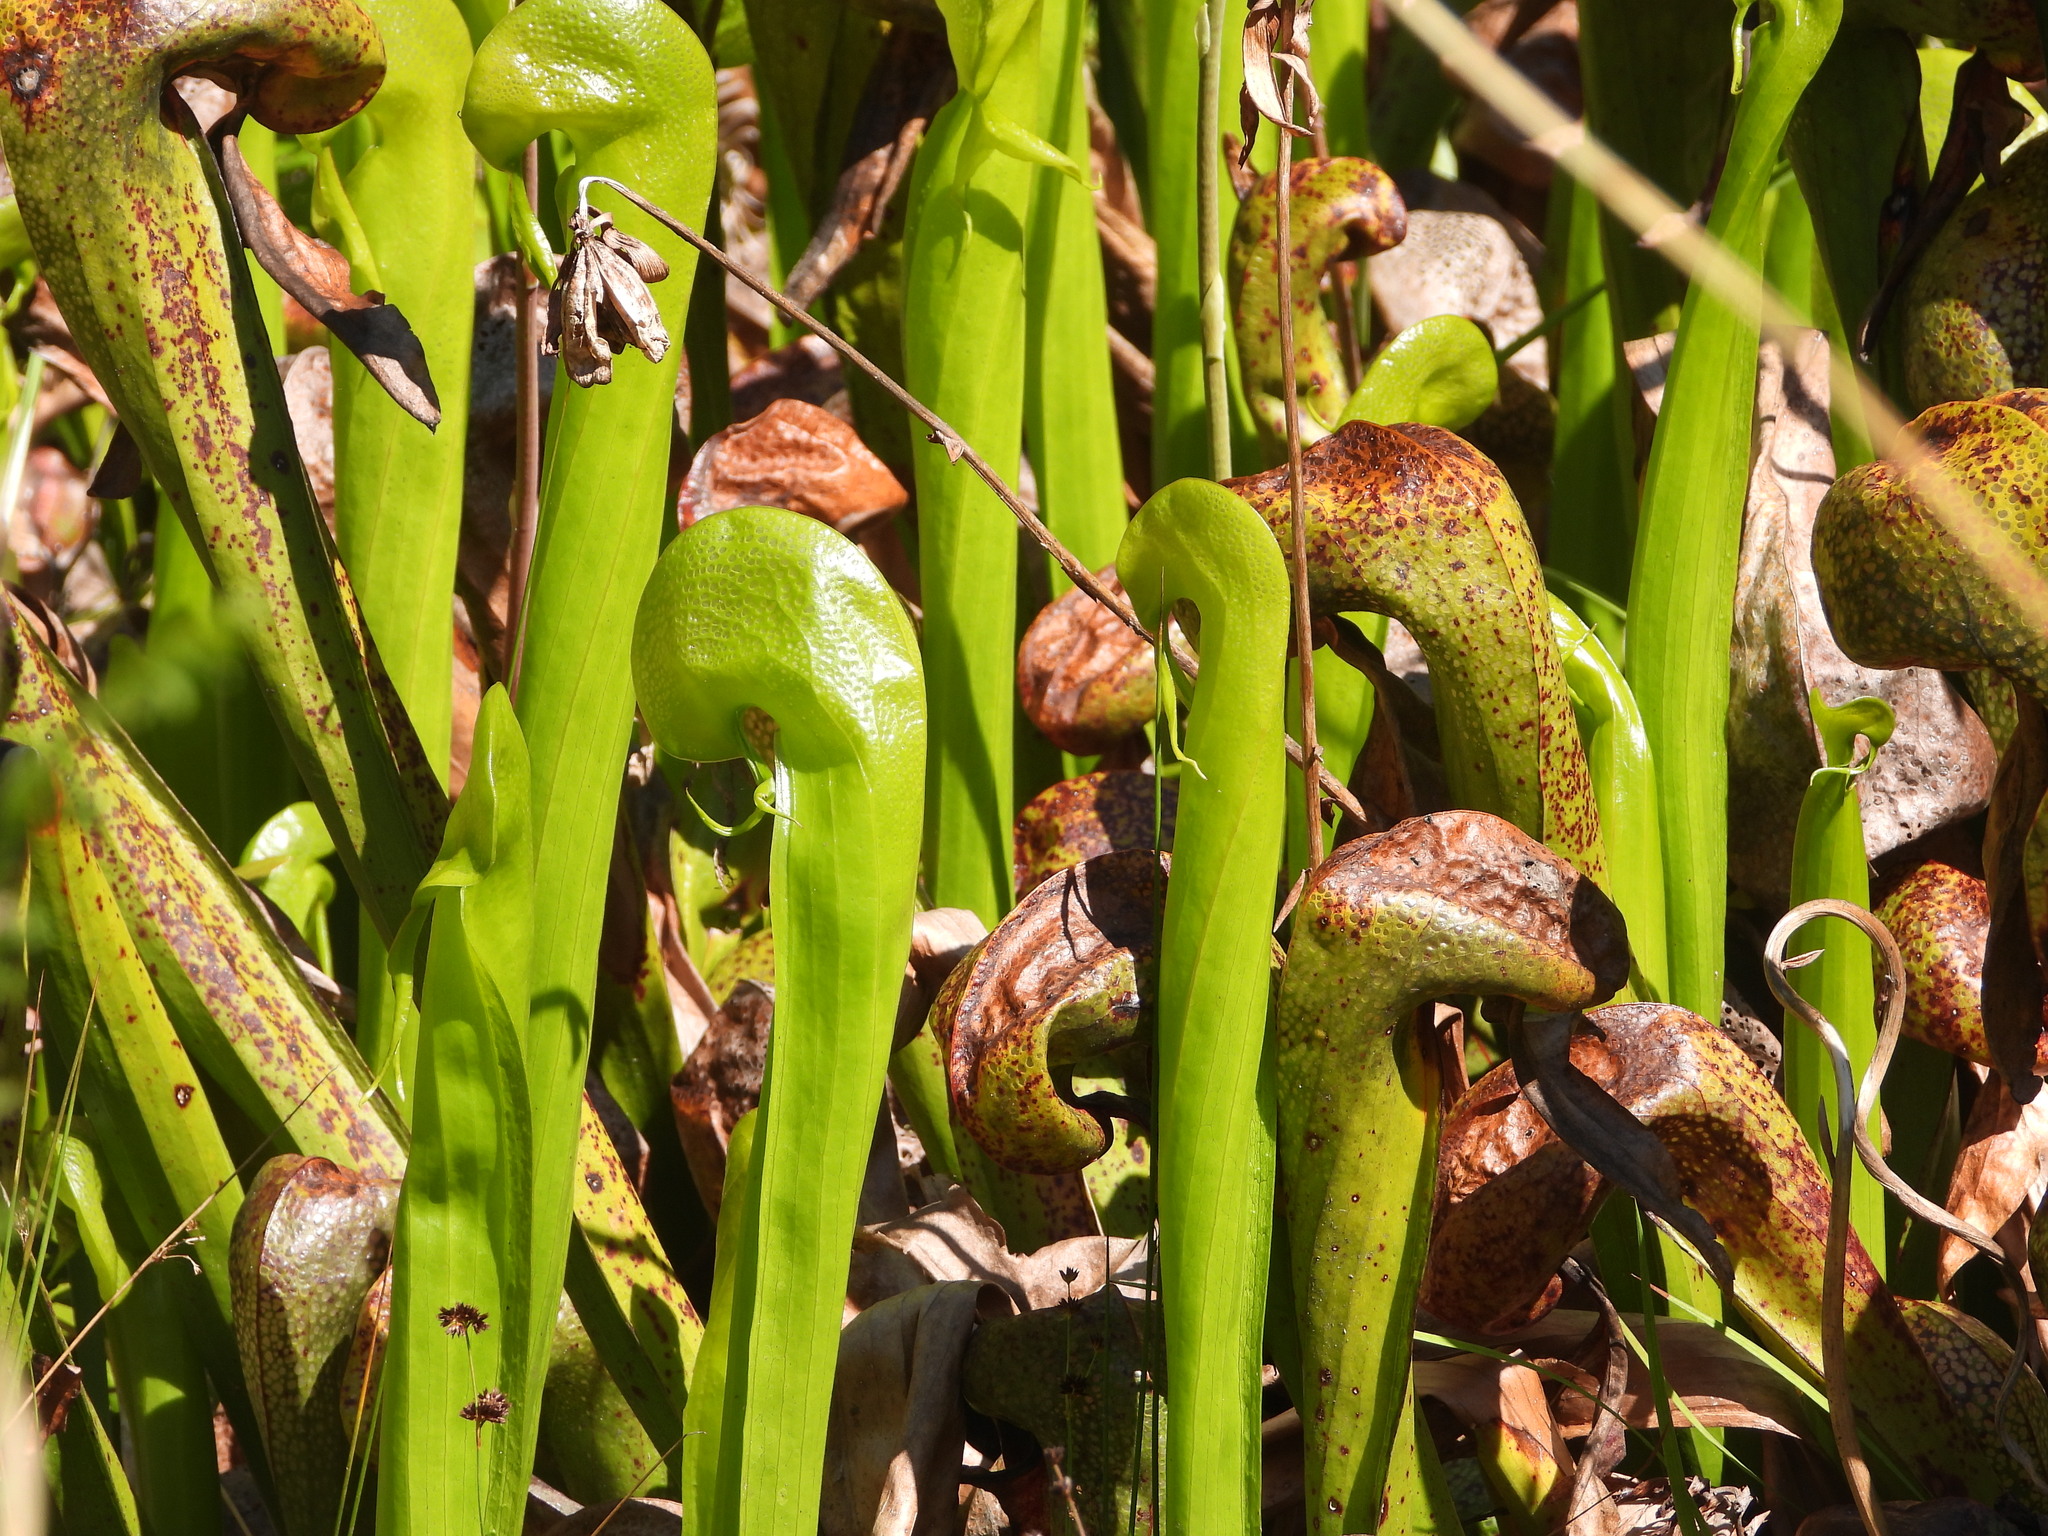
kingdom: Plantae
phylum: Tracheophyta
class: Magnoliopsida
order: Ericales
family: Sarraceniaceae
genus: Darlingtonia
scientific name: Darlingtonia californica
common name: California pitcher plant
